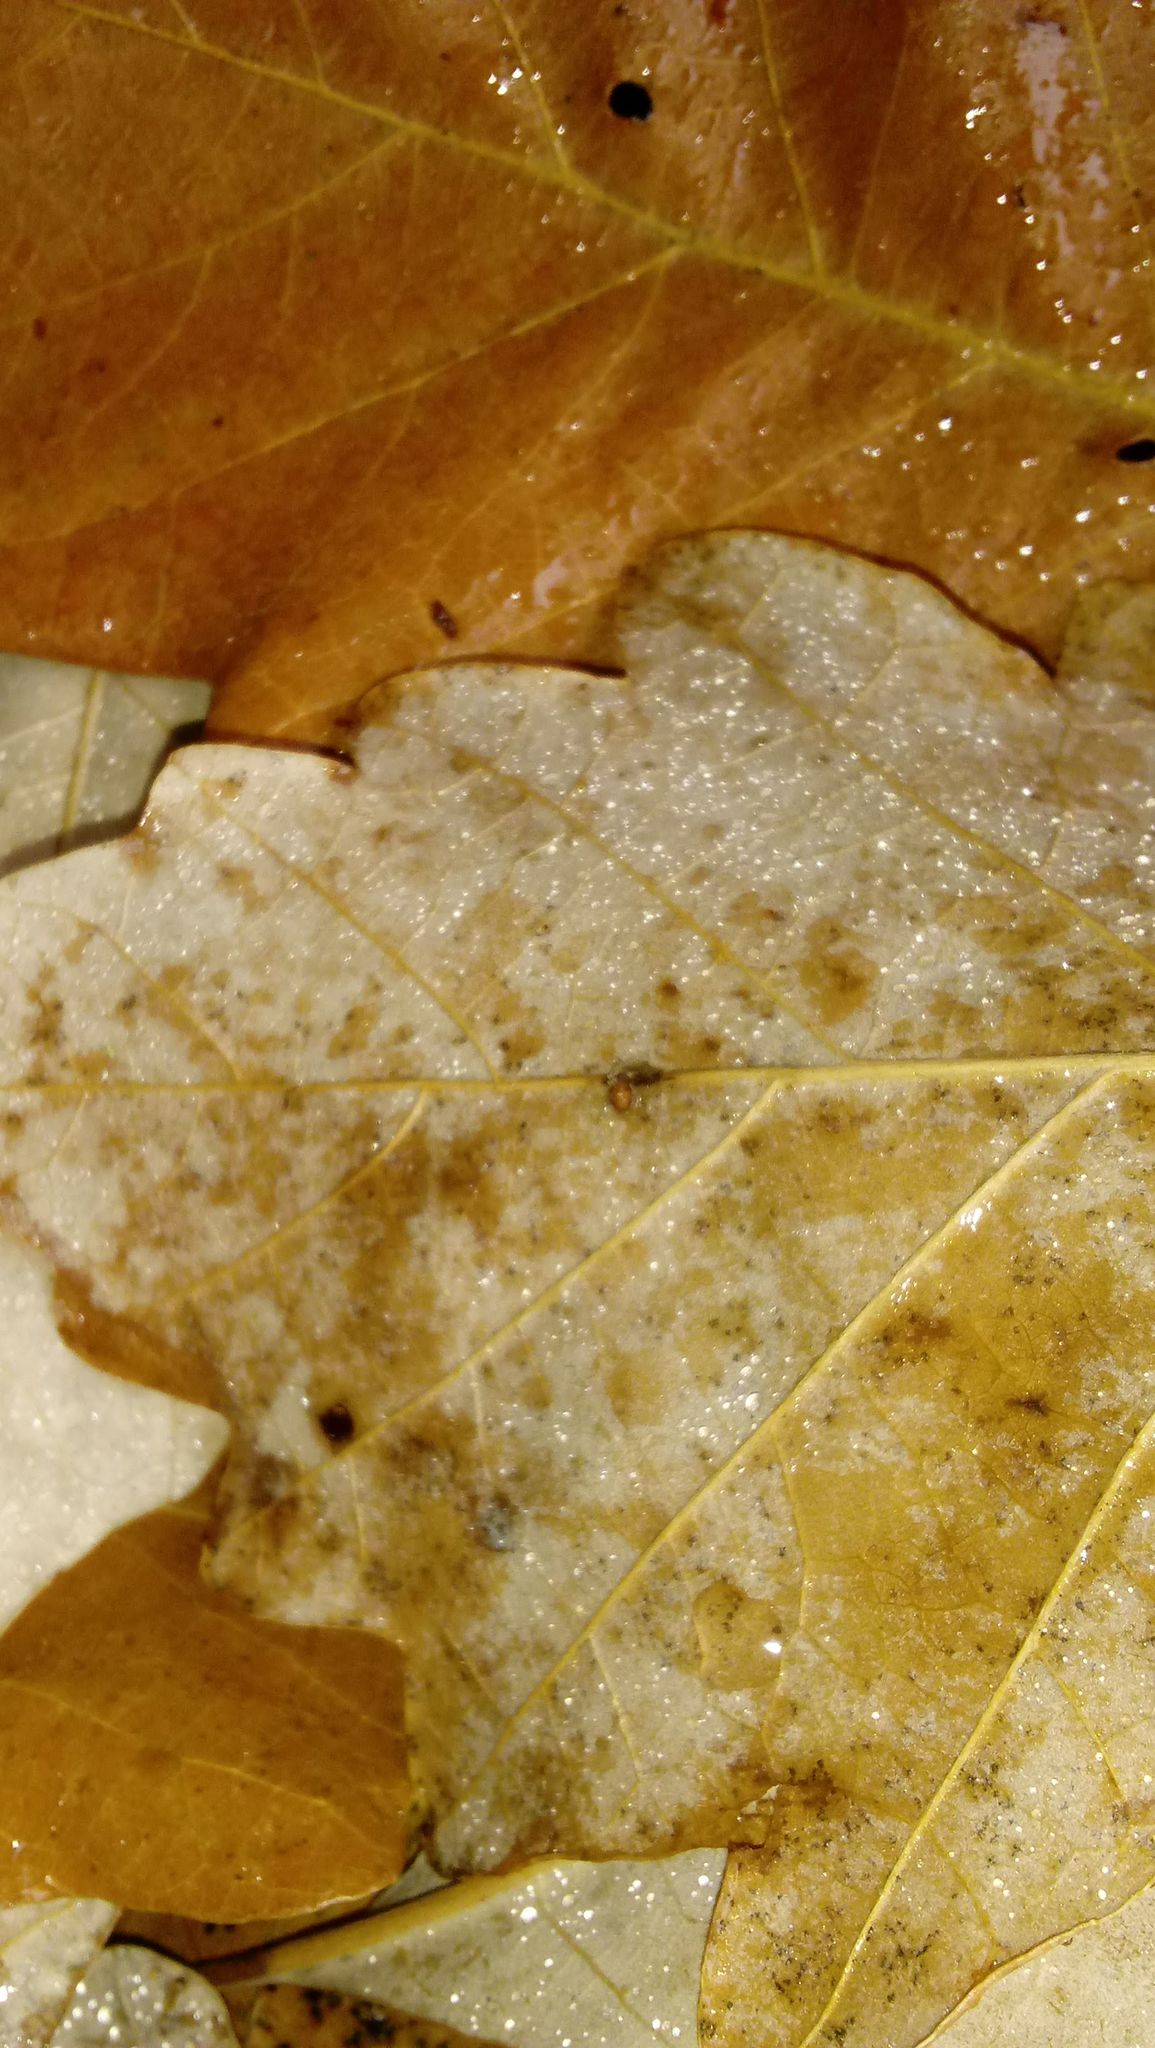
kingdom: Animalia
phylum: Arthropoda
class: Insecta
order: Hymenoptera
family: Cynipidae
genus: Andricus
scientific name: Andricus Druon ignotum
